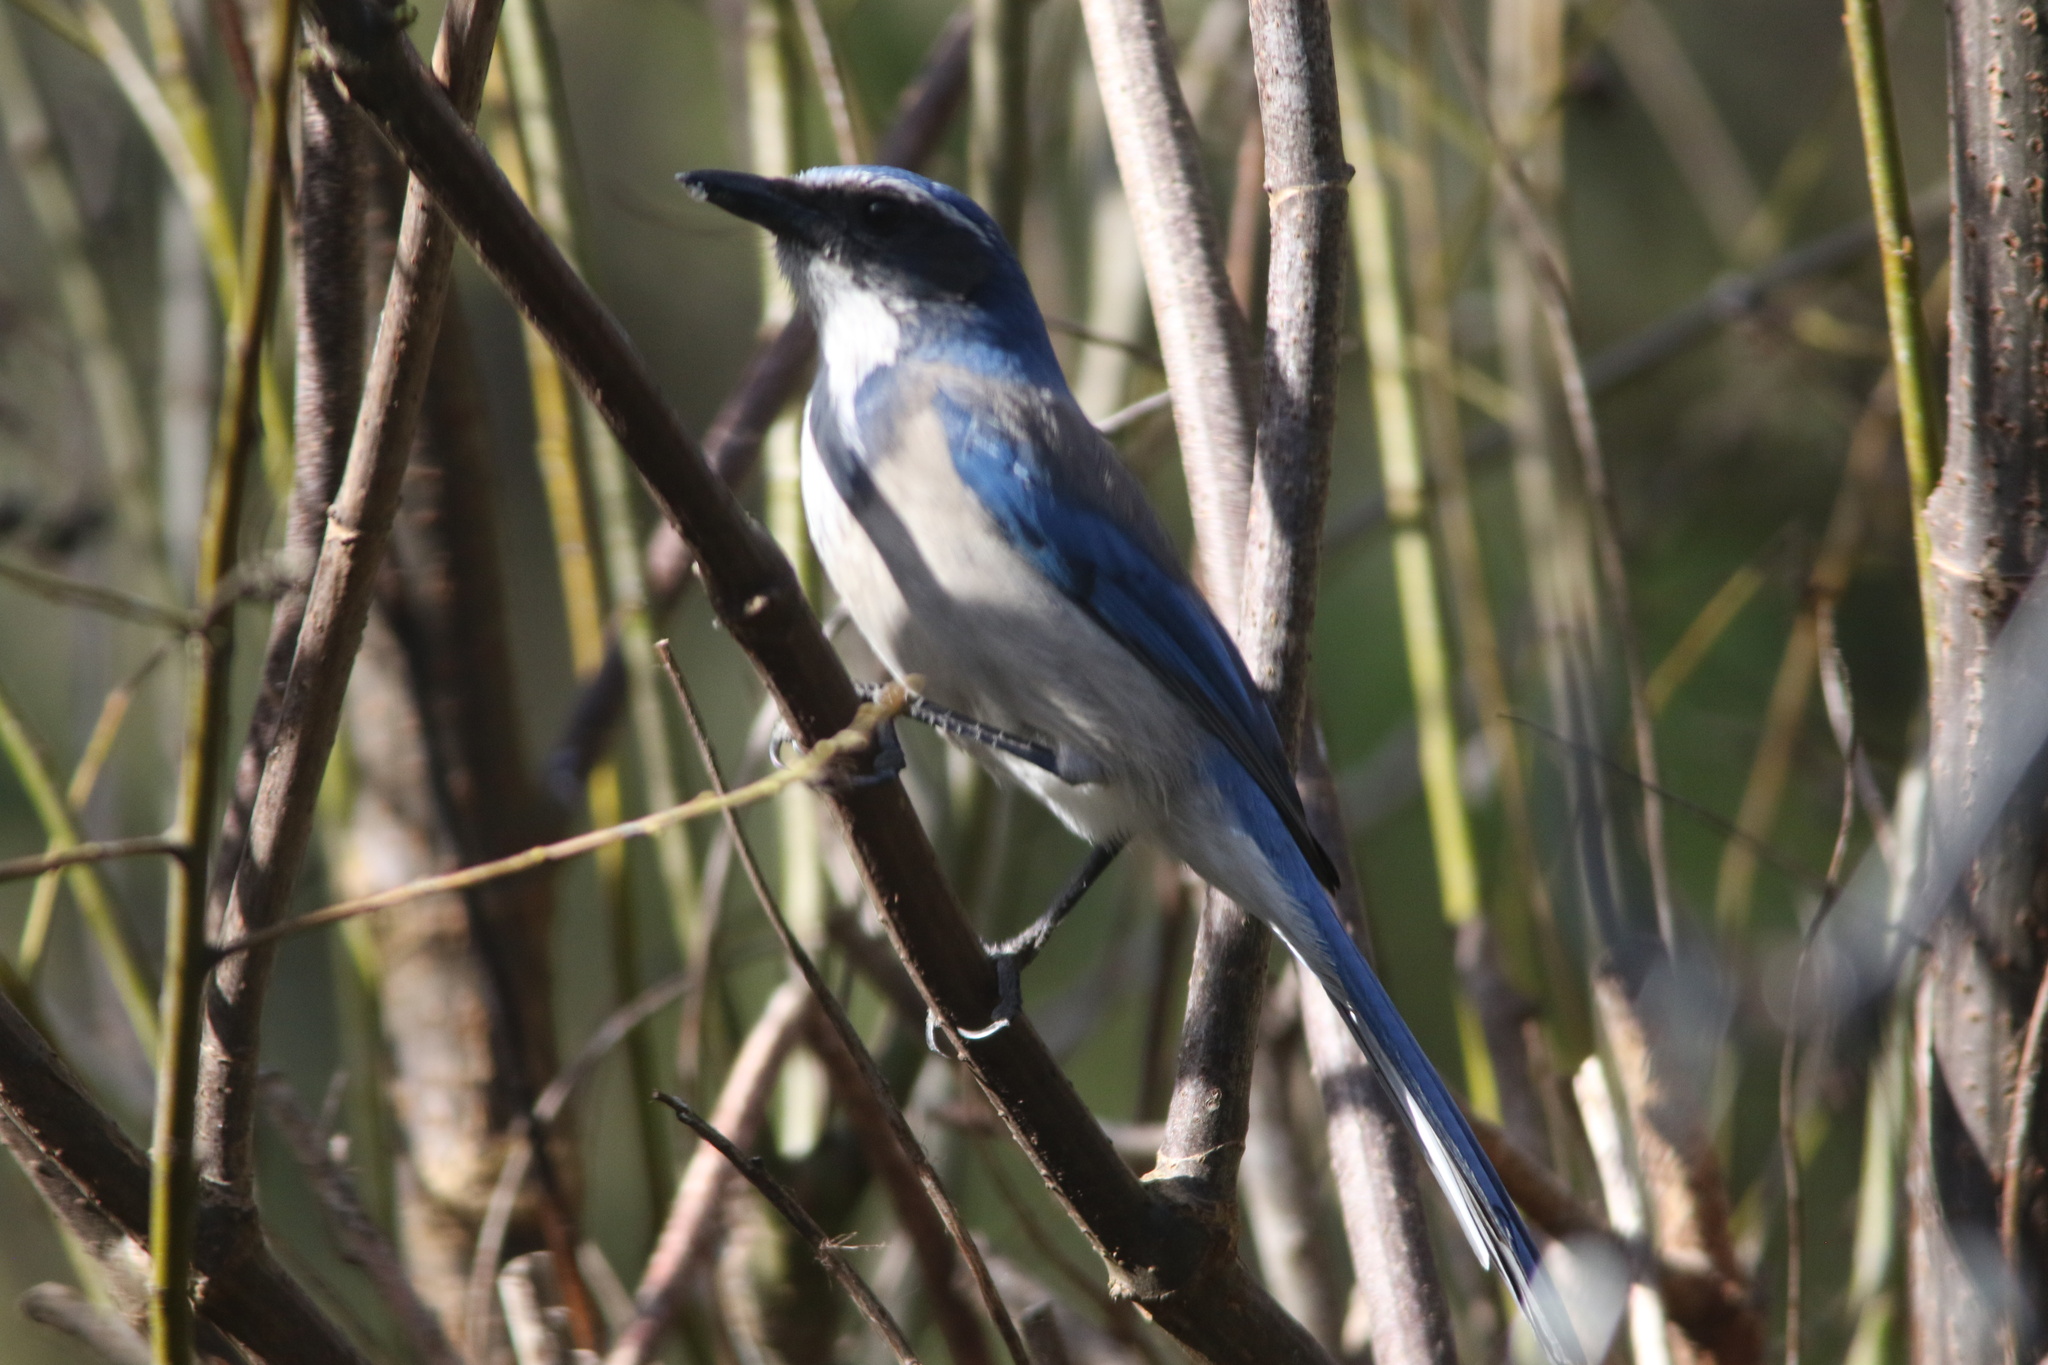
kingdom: Animalia
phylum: Chordata
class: Aves
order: Passeriformes
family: Corvidae
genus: Aphelocoma
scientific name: Aphelocoma californica
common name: California scrub-jay
